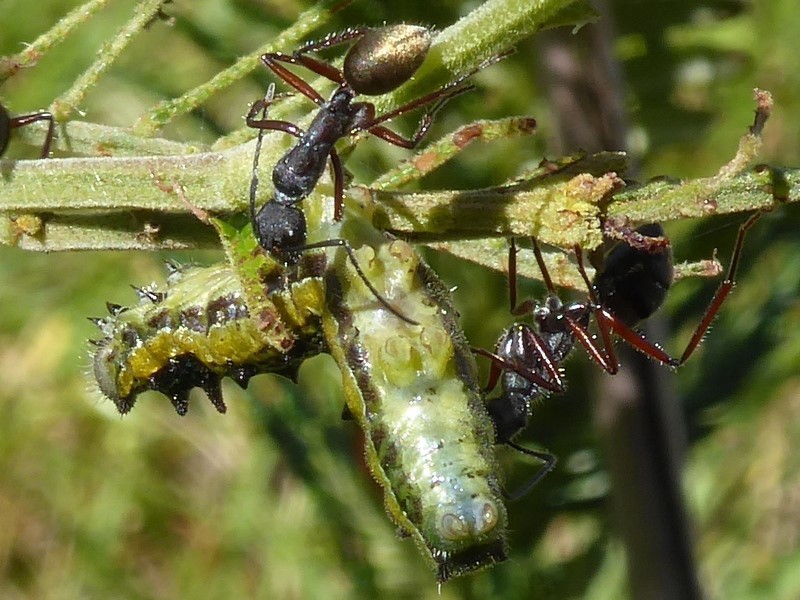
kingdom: Animalia
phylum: Arthropoda
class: Insecta
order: Hymenoptera
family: Formicidae
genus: Camponotus
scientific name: Camponotus suffusus
